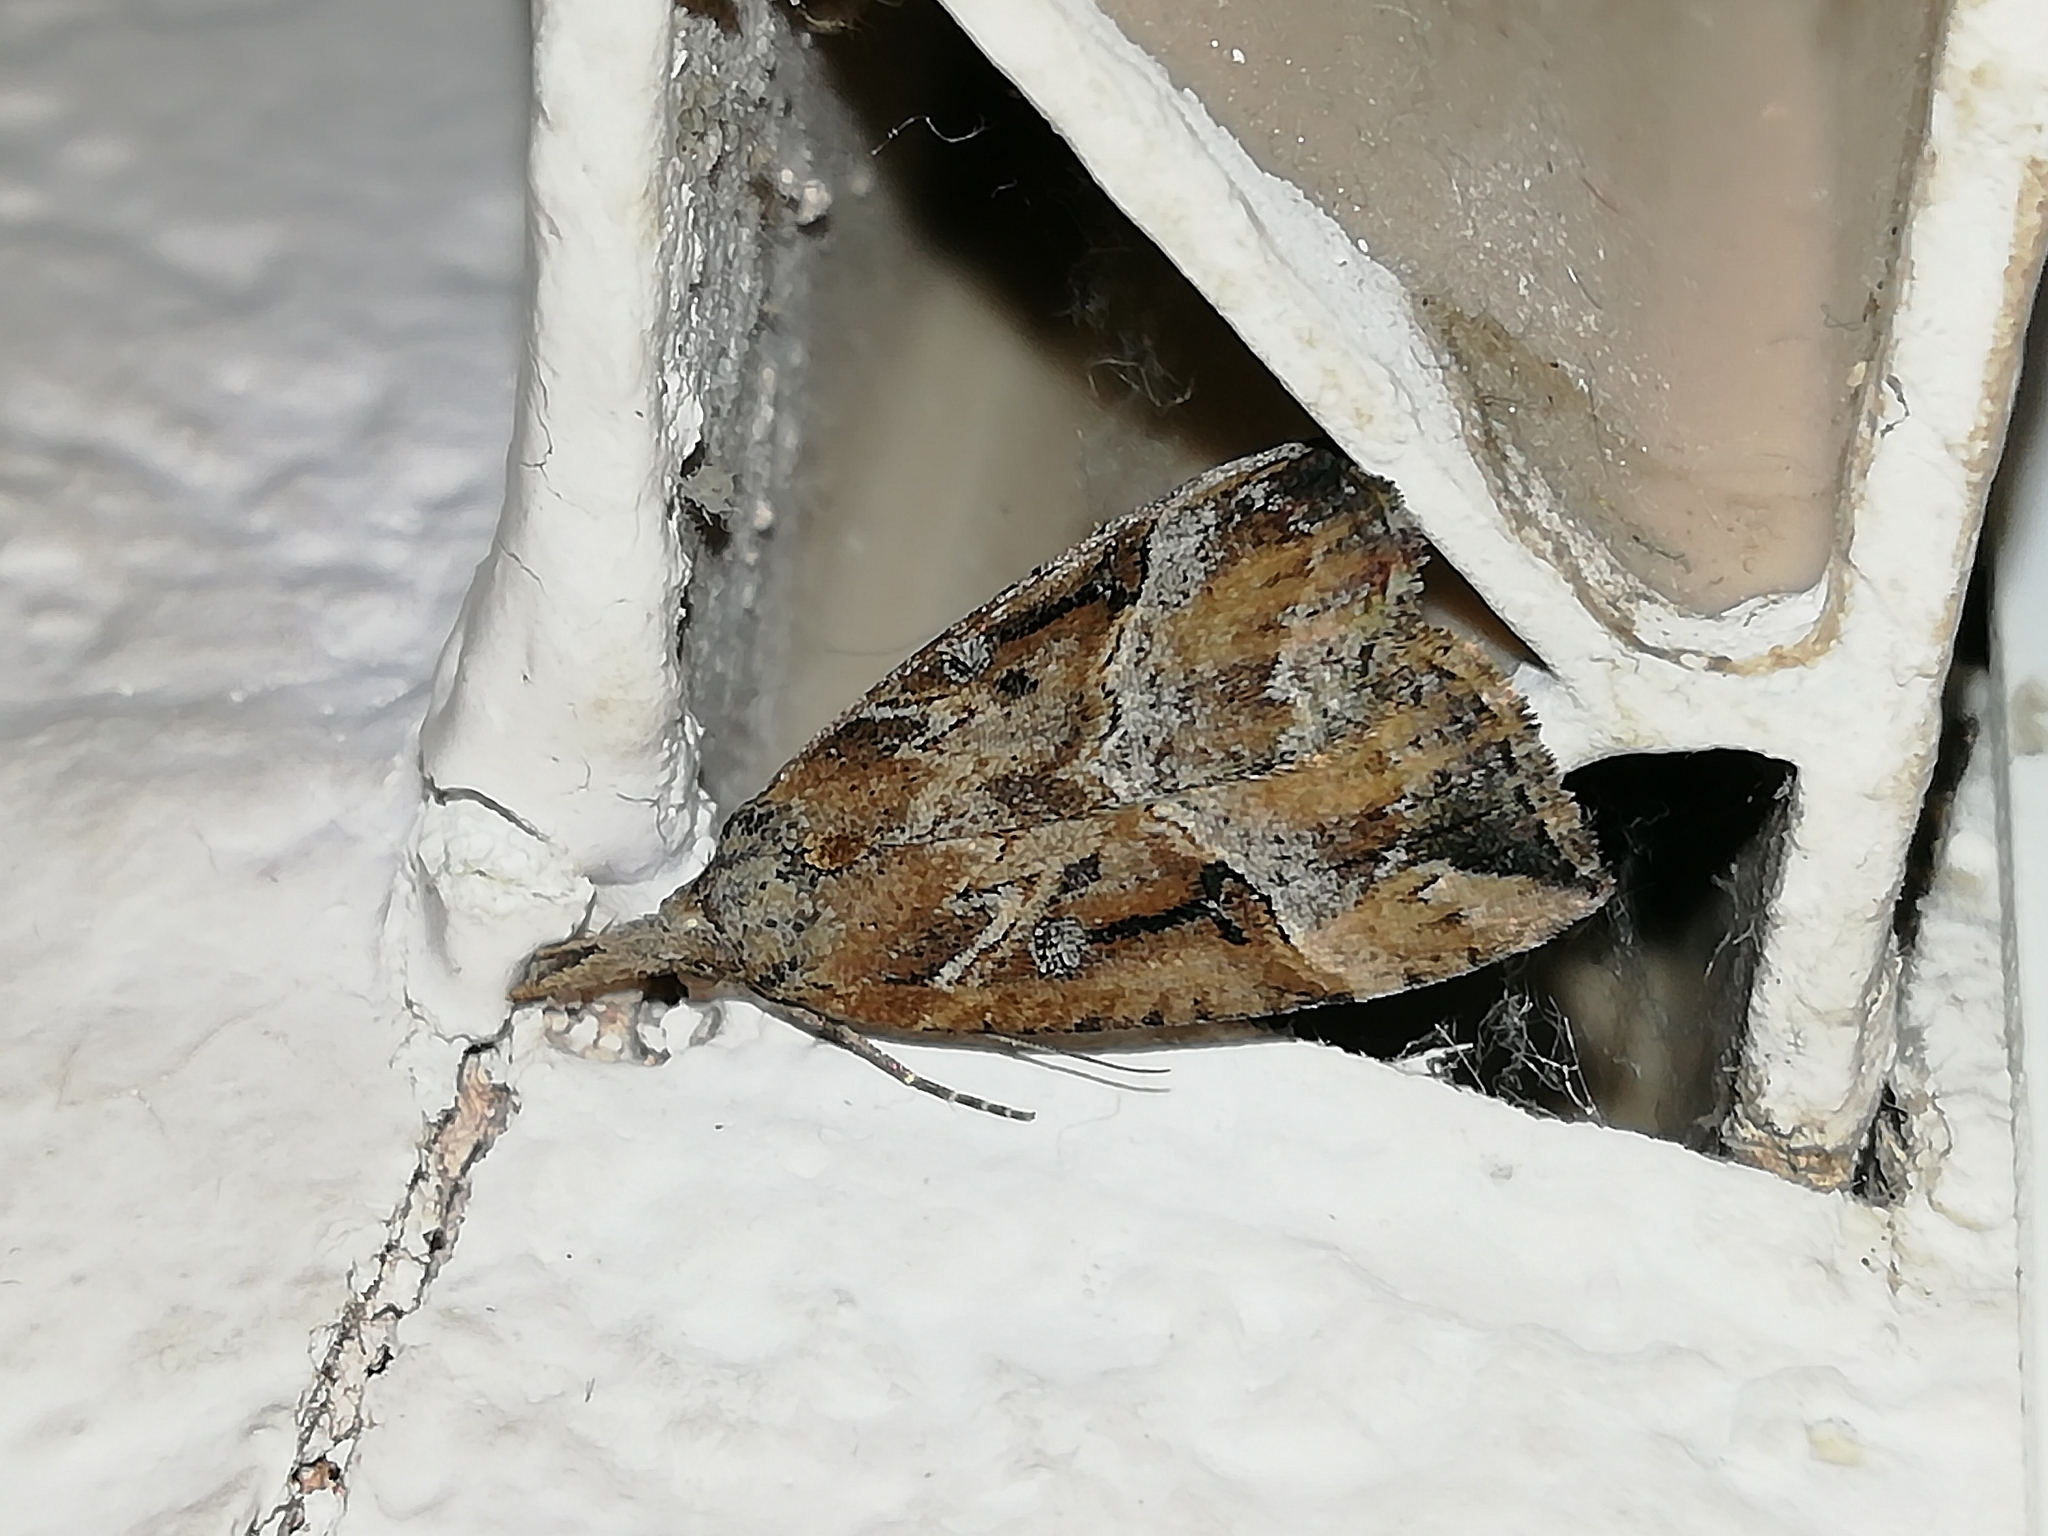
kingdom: Animalia
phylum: Arthropoda
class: Insecta
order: Lepidoptera
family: Erebidae
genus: Hypena
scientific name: Hypena rostralis
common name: Buttoned snout
